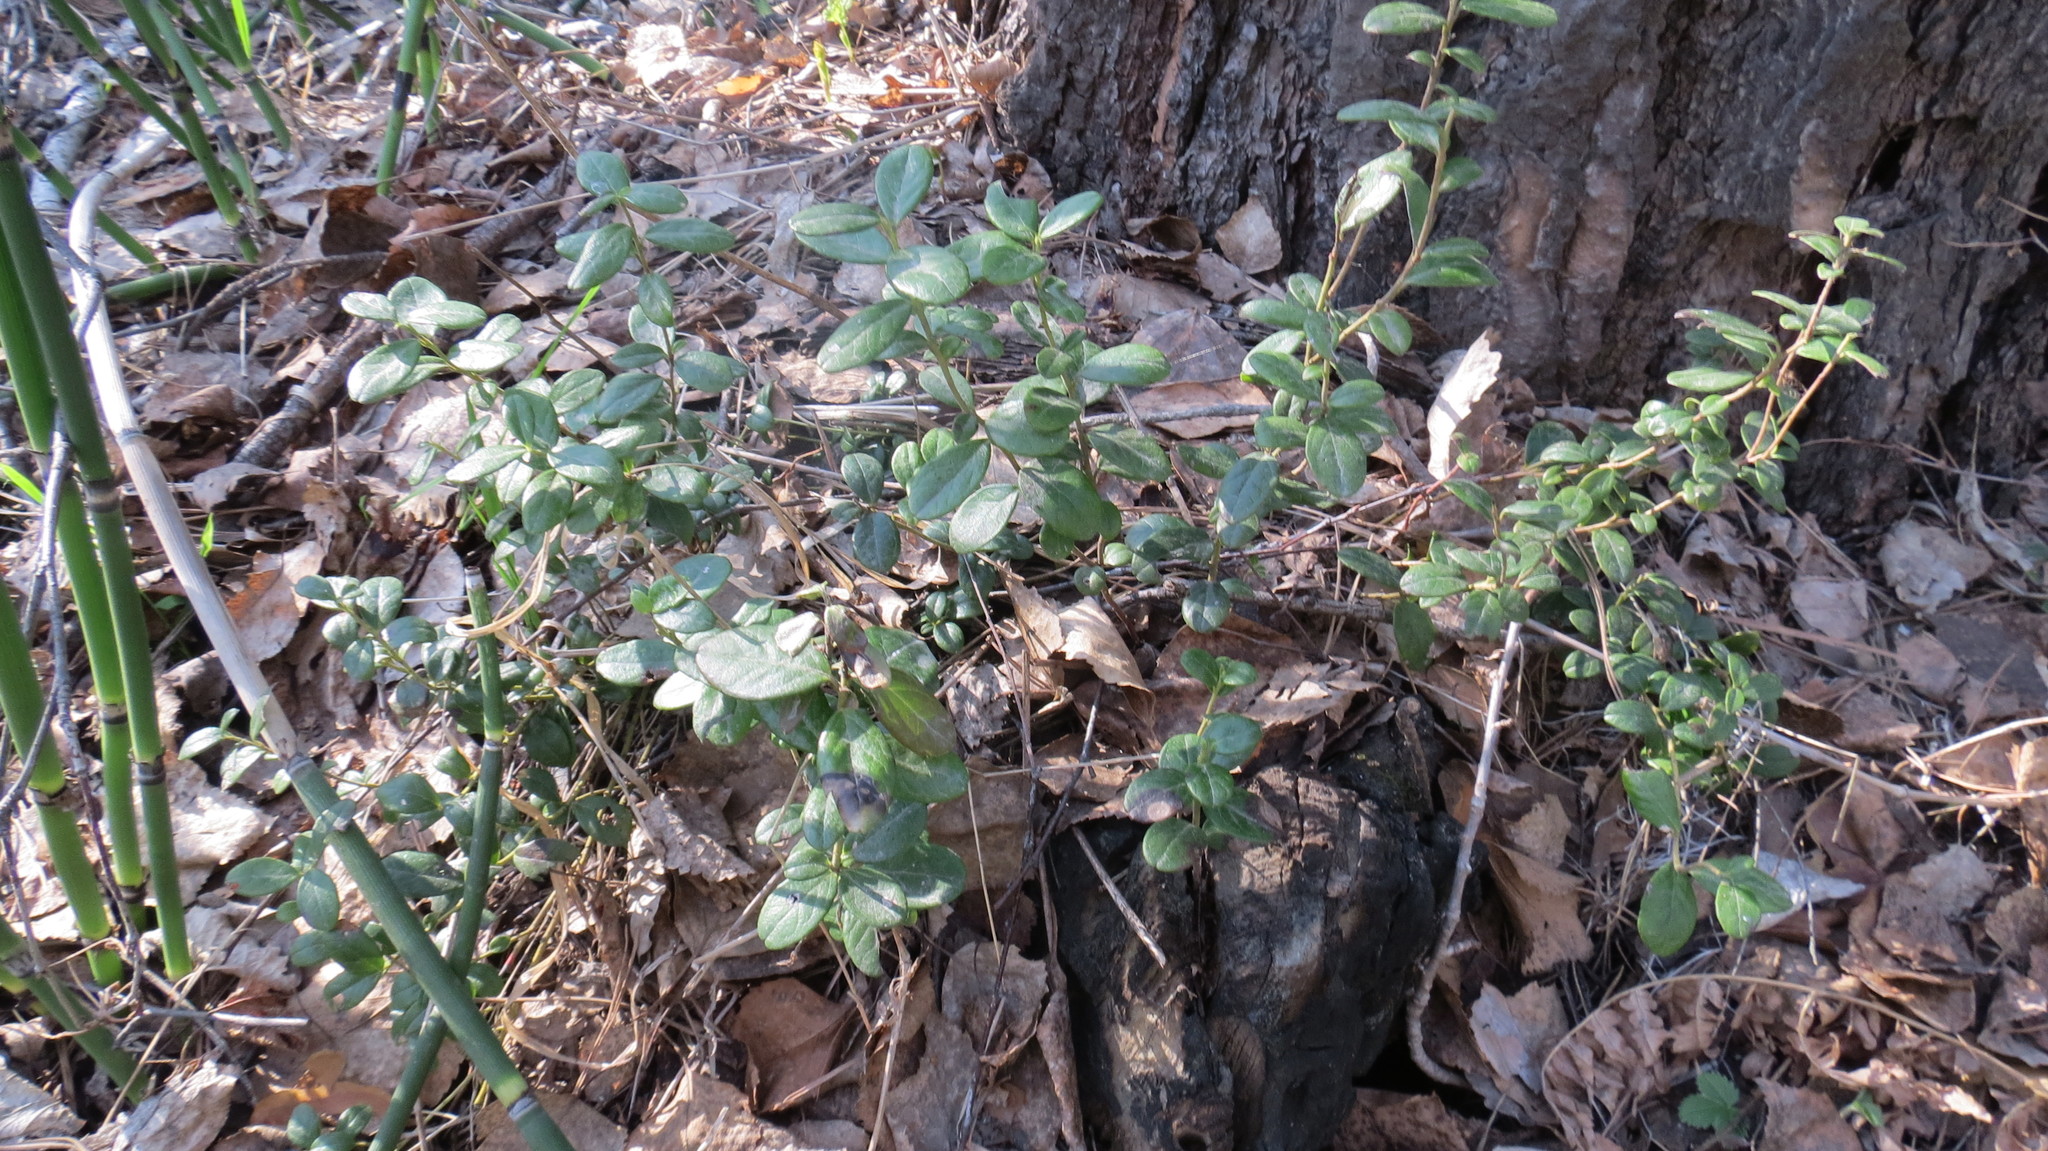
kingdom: Plantae
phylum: Tracheophyta
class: Magnoliopsida
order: Ericales
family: Ericaceae
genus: Vaccinium
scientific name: Vaccinium vitis-idaea
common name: Cowberry
